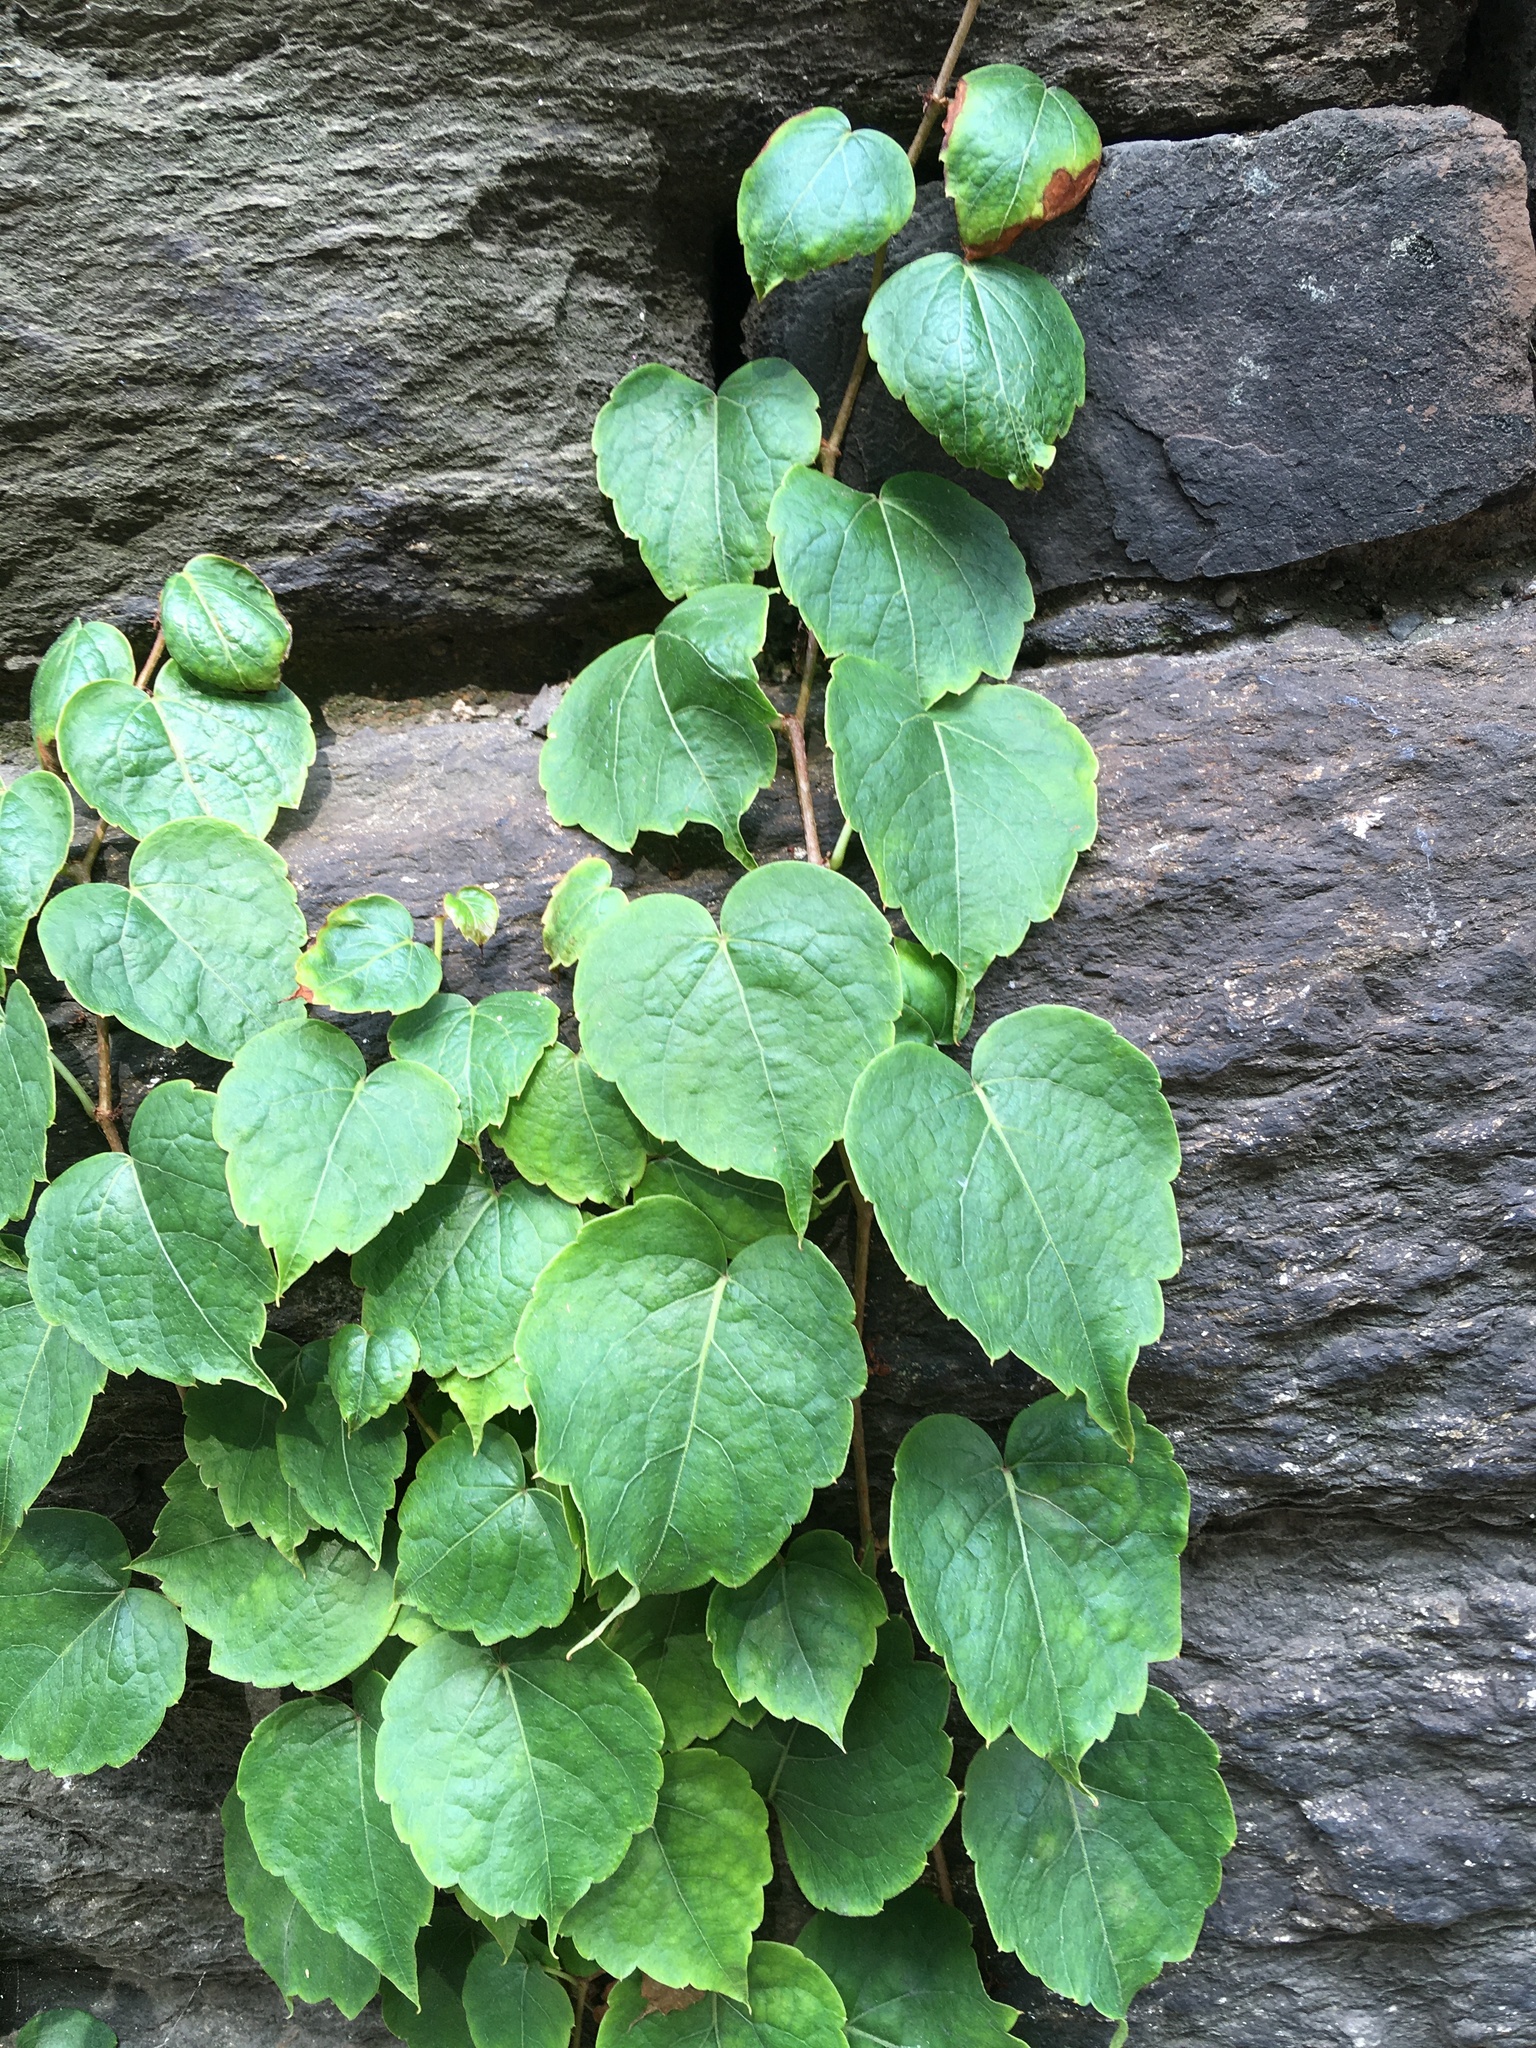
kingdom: Plantae
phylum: Tracheophyta
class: Magnoliopsida
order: Vitales
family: Vitaceae
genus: Parthenocissus
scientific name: Parthenocissus tricuspidata
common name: Boston ivy
